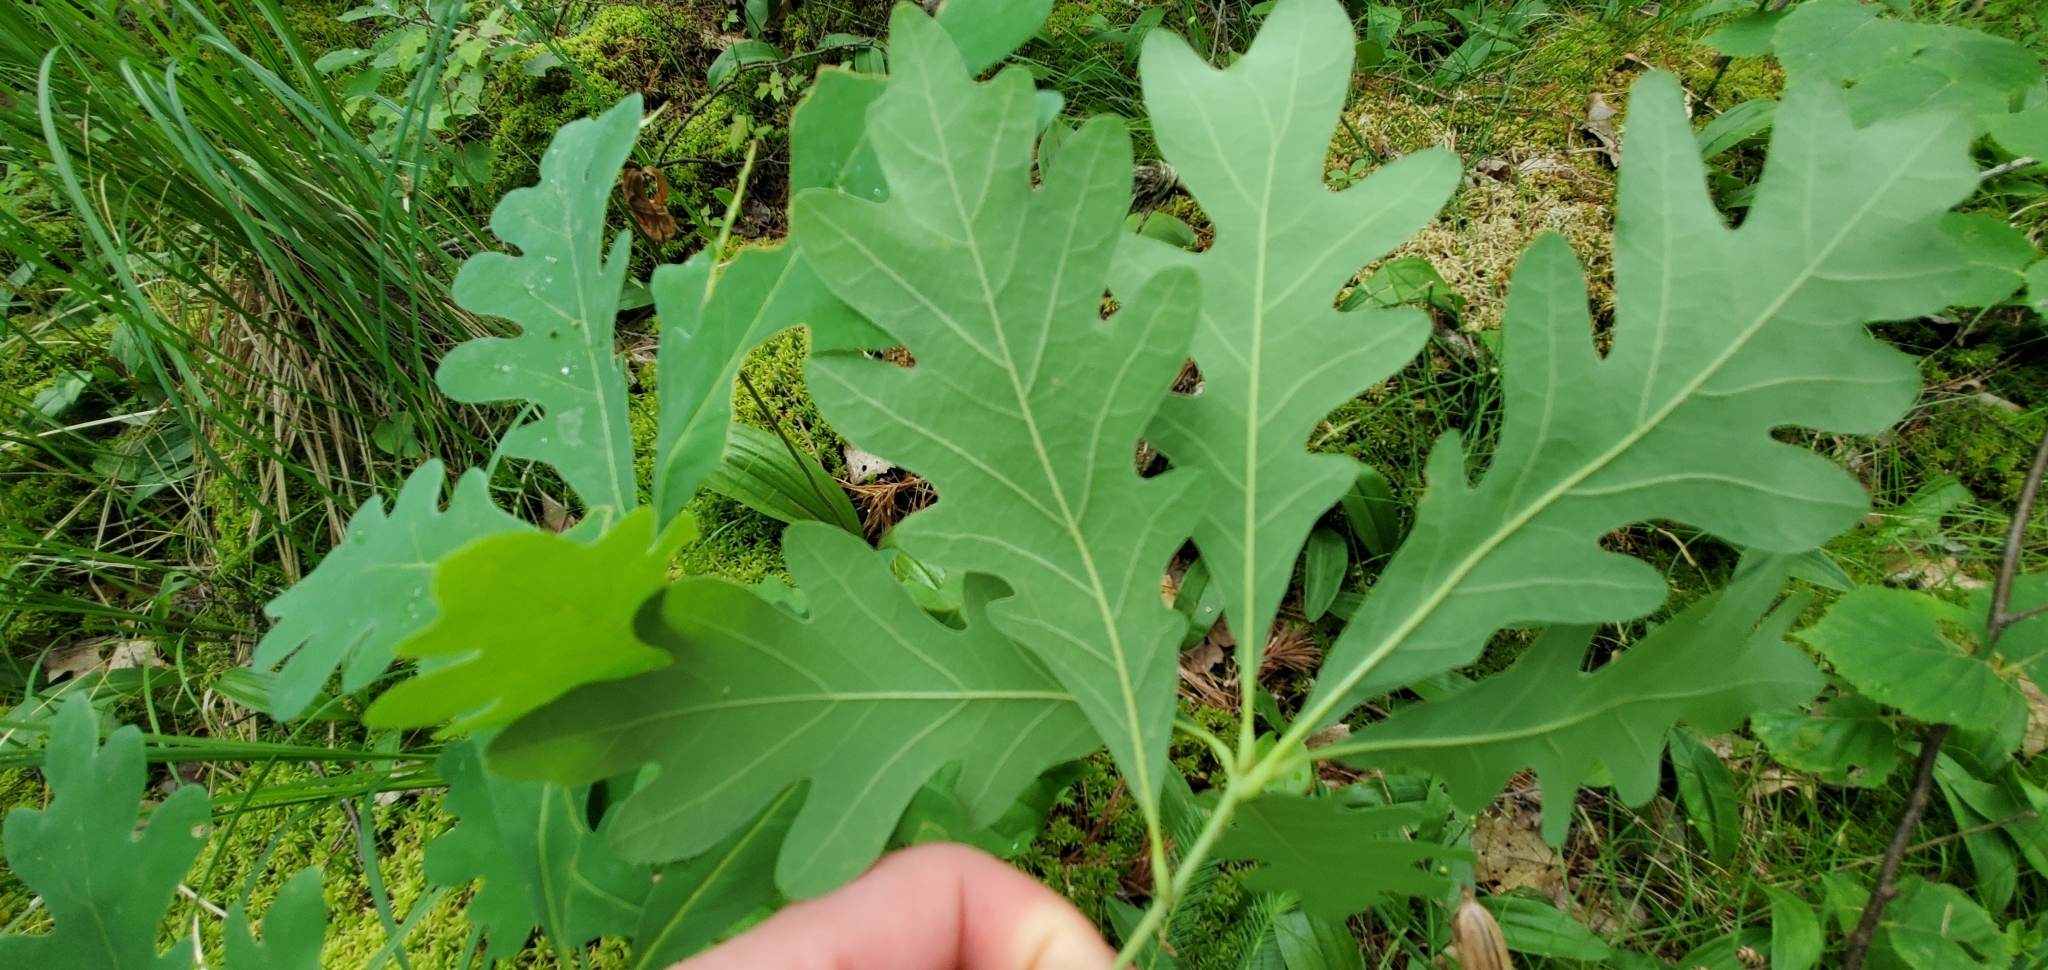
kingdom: Plantae
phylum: Tracheophyta
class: Magnoliopsida
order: Fagales
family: Fagaceae
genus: Quercus
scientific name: Quercus alba
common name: White oak
